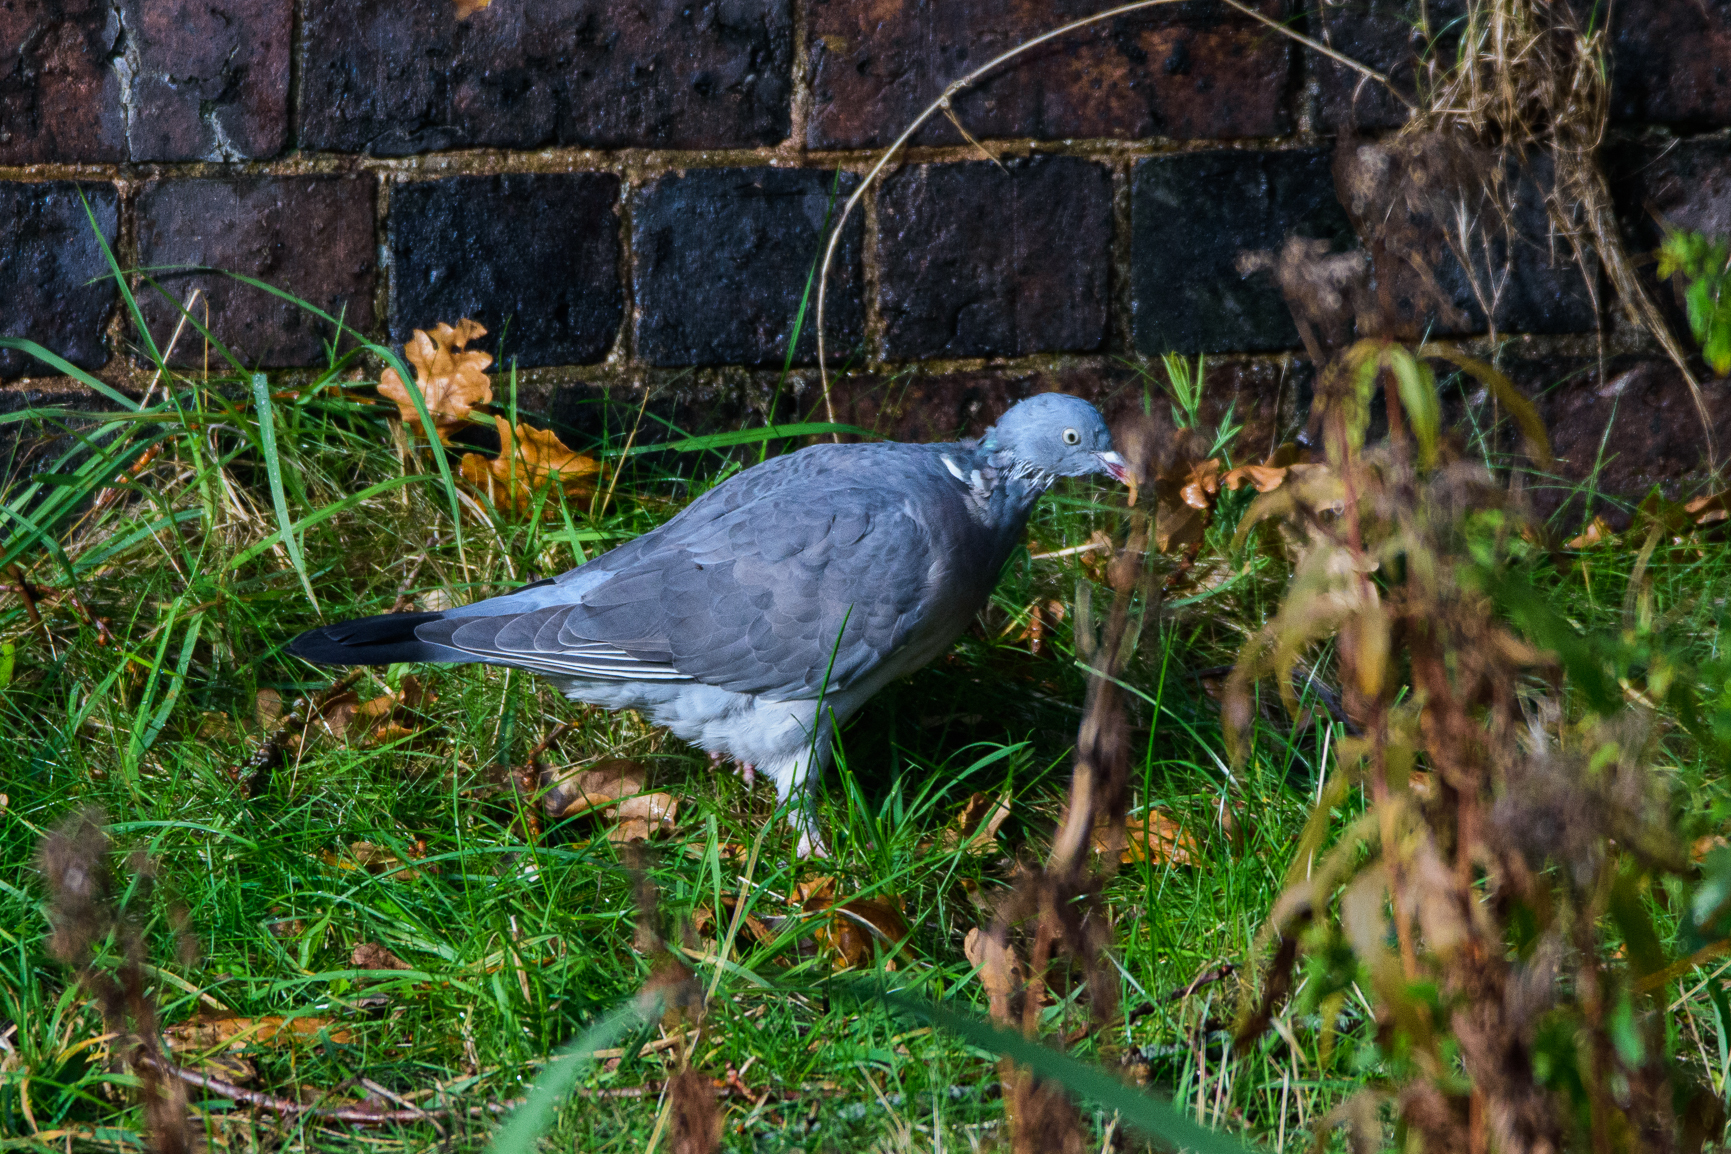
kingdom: Animalia
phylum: Chordata
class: Aves
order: Columbiformes
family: Columbidae
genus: Columba
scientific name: Columba palumbus
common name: Common wood pigeon
